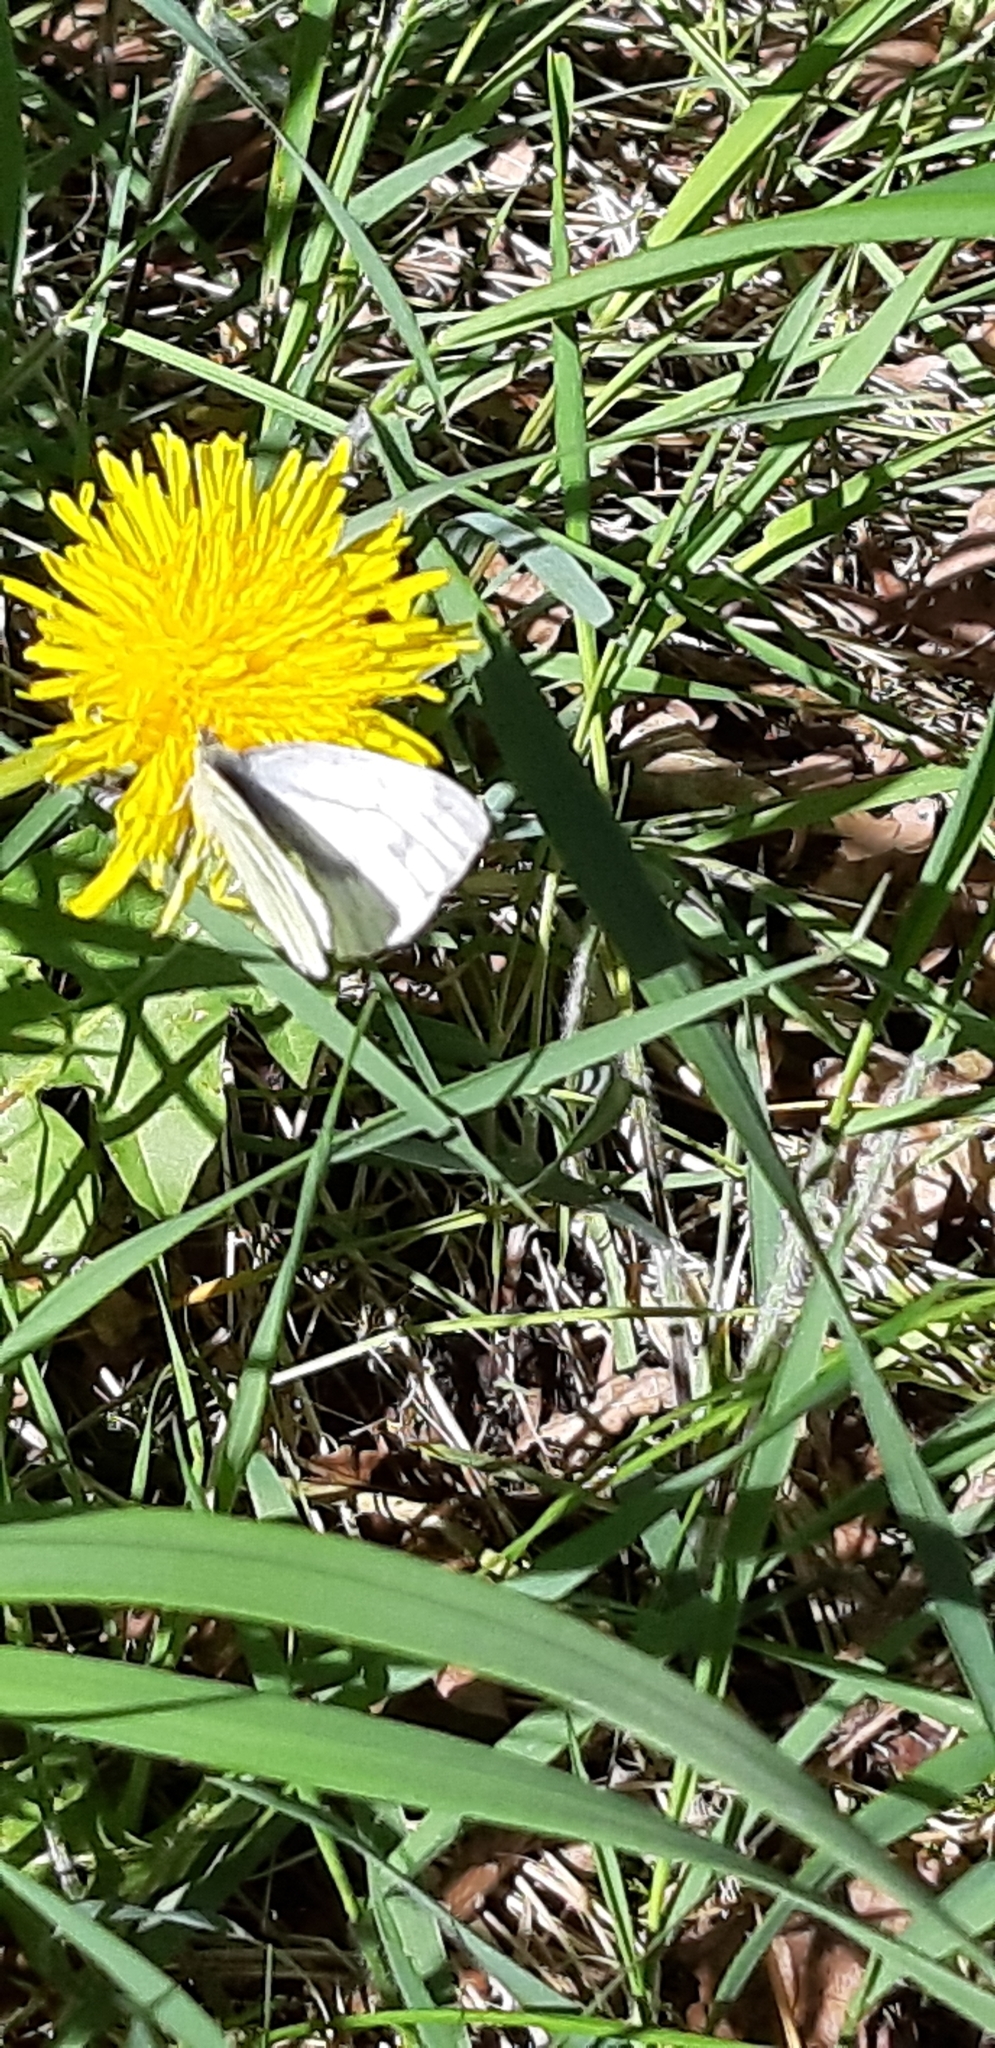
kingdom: Animalia
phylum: Arthropoda
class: Insecta
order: Lepidoptera
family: Pieridae
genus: Pieris
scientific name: Pieris napi
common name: Green-veined white
